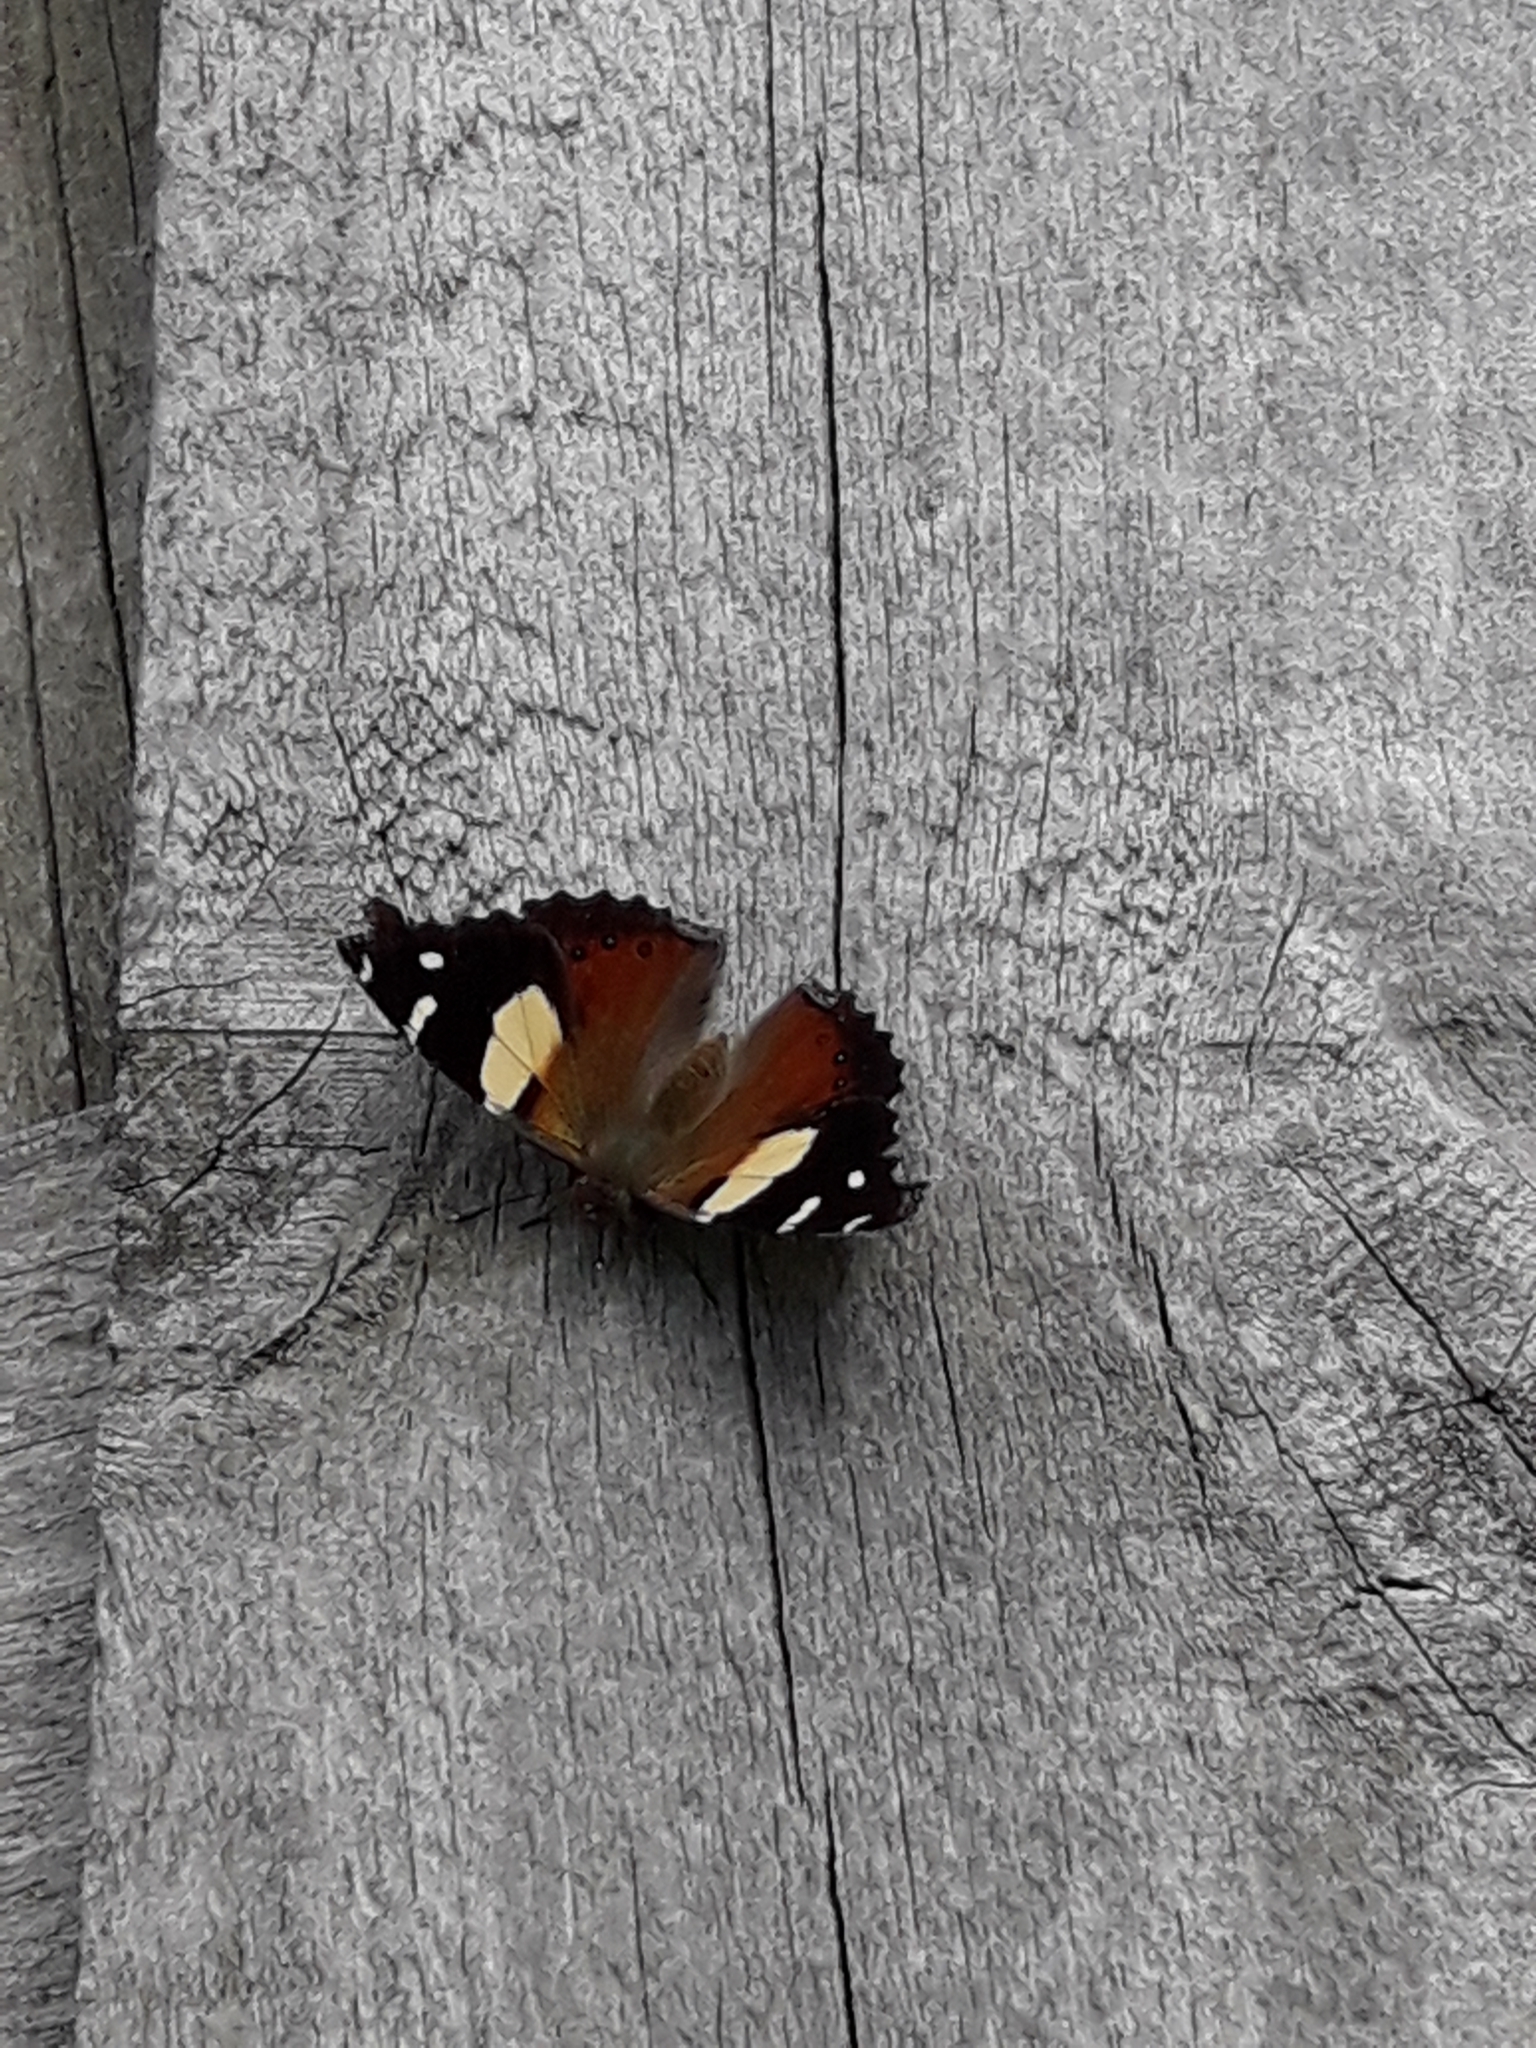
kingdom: Animalia
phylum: Arthropoda
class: Insecta
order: Lepidoptera
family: Nymphalidae
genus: Vanessa
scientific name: Vanessa itea
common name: Yellow admiral
